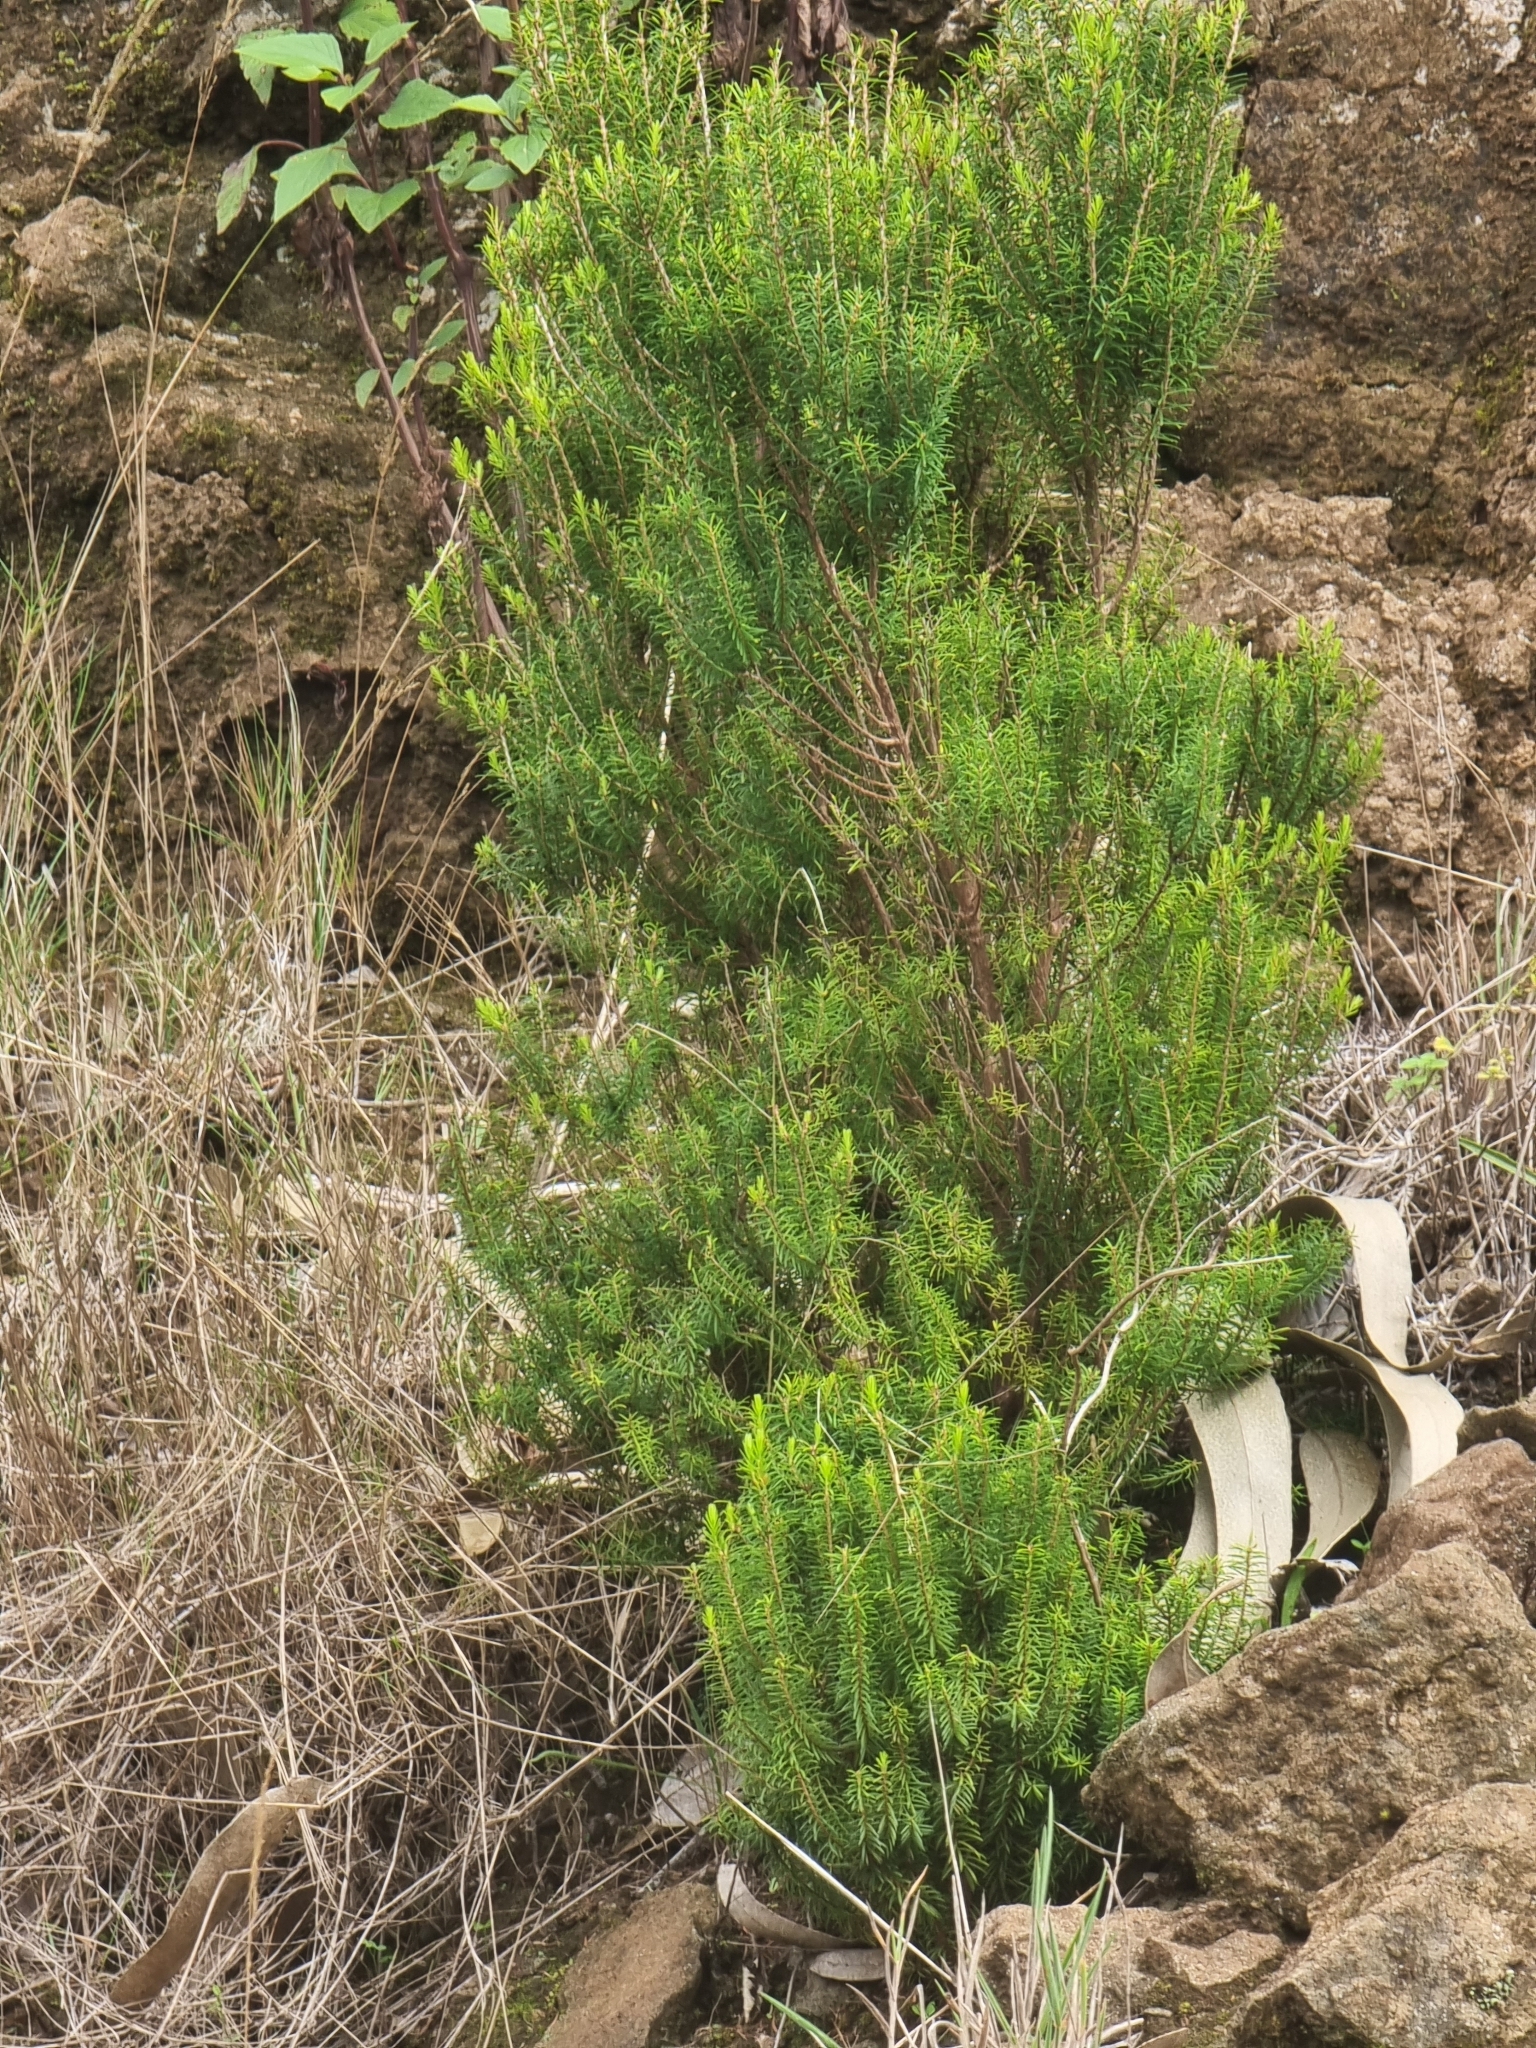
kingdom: Plantae
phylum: Tracheophyta
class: Magnoliopsida
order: Ericales
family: Ericaceae
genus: Erica
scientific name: Erica platycodon
